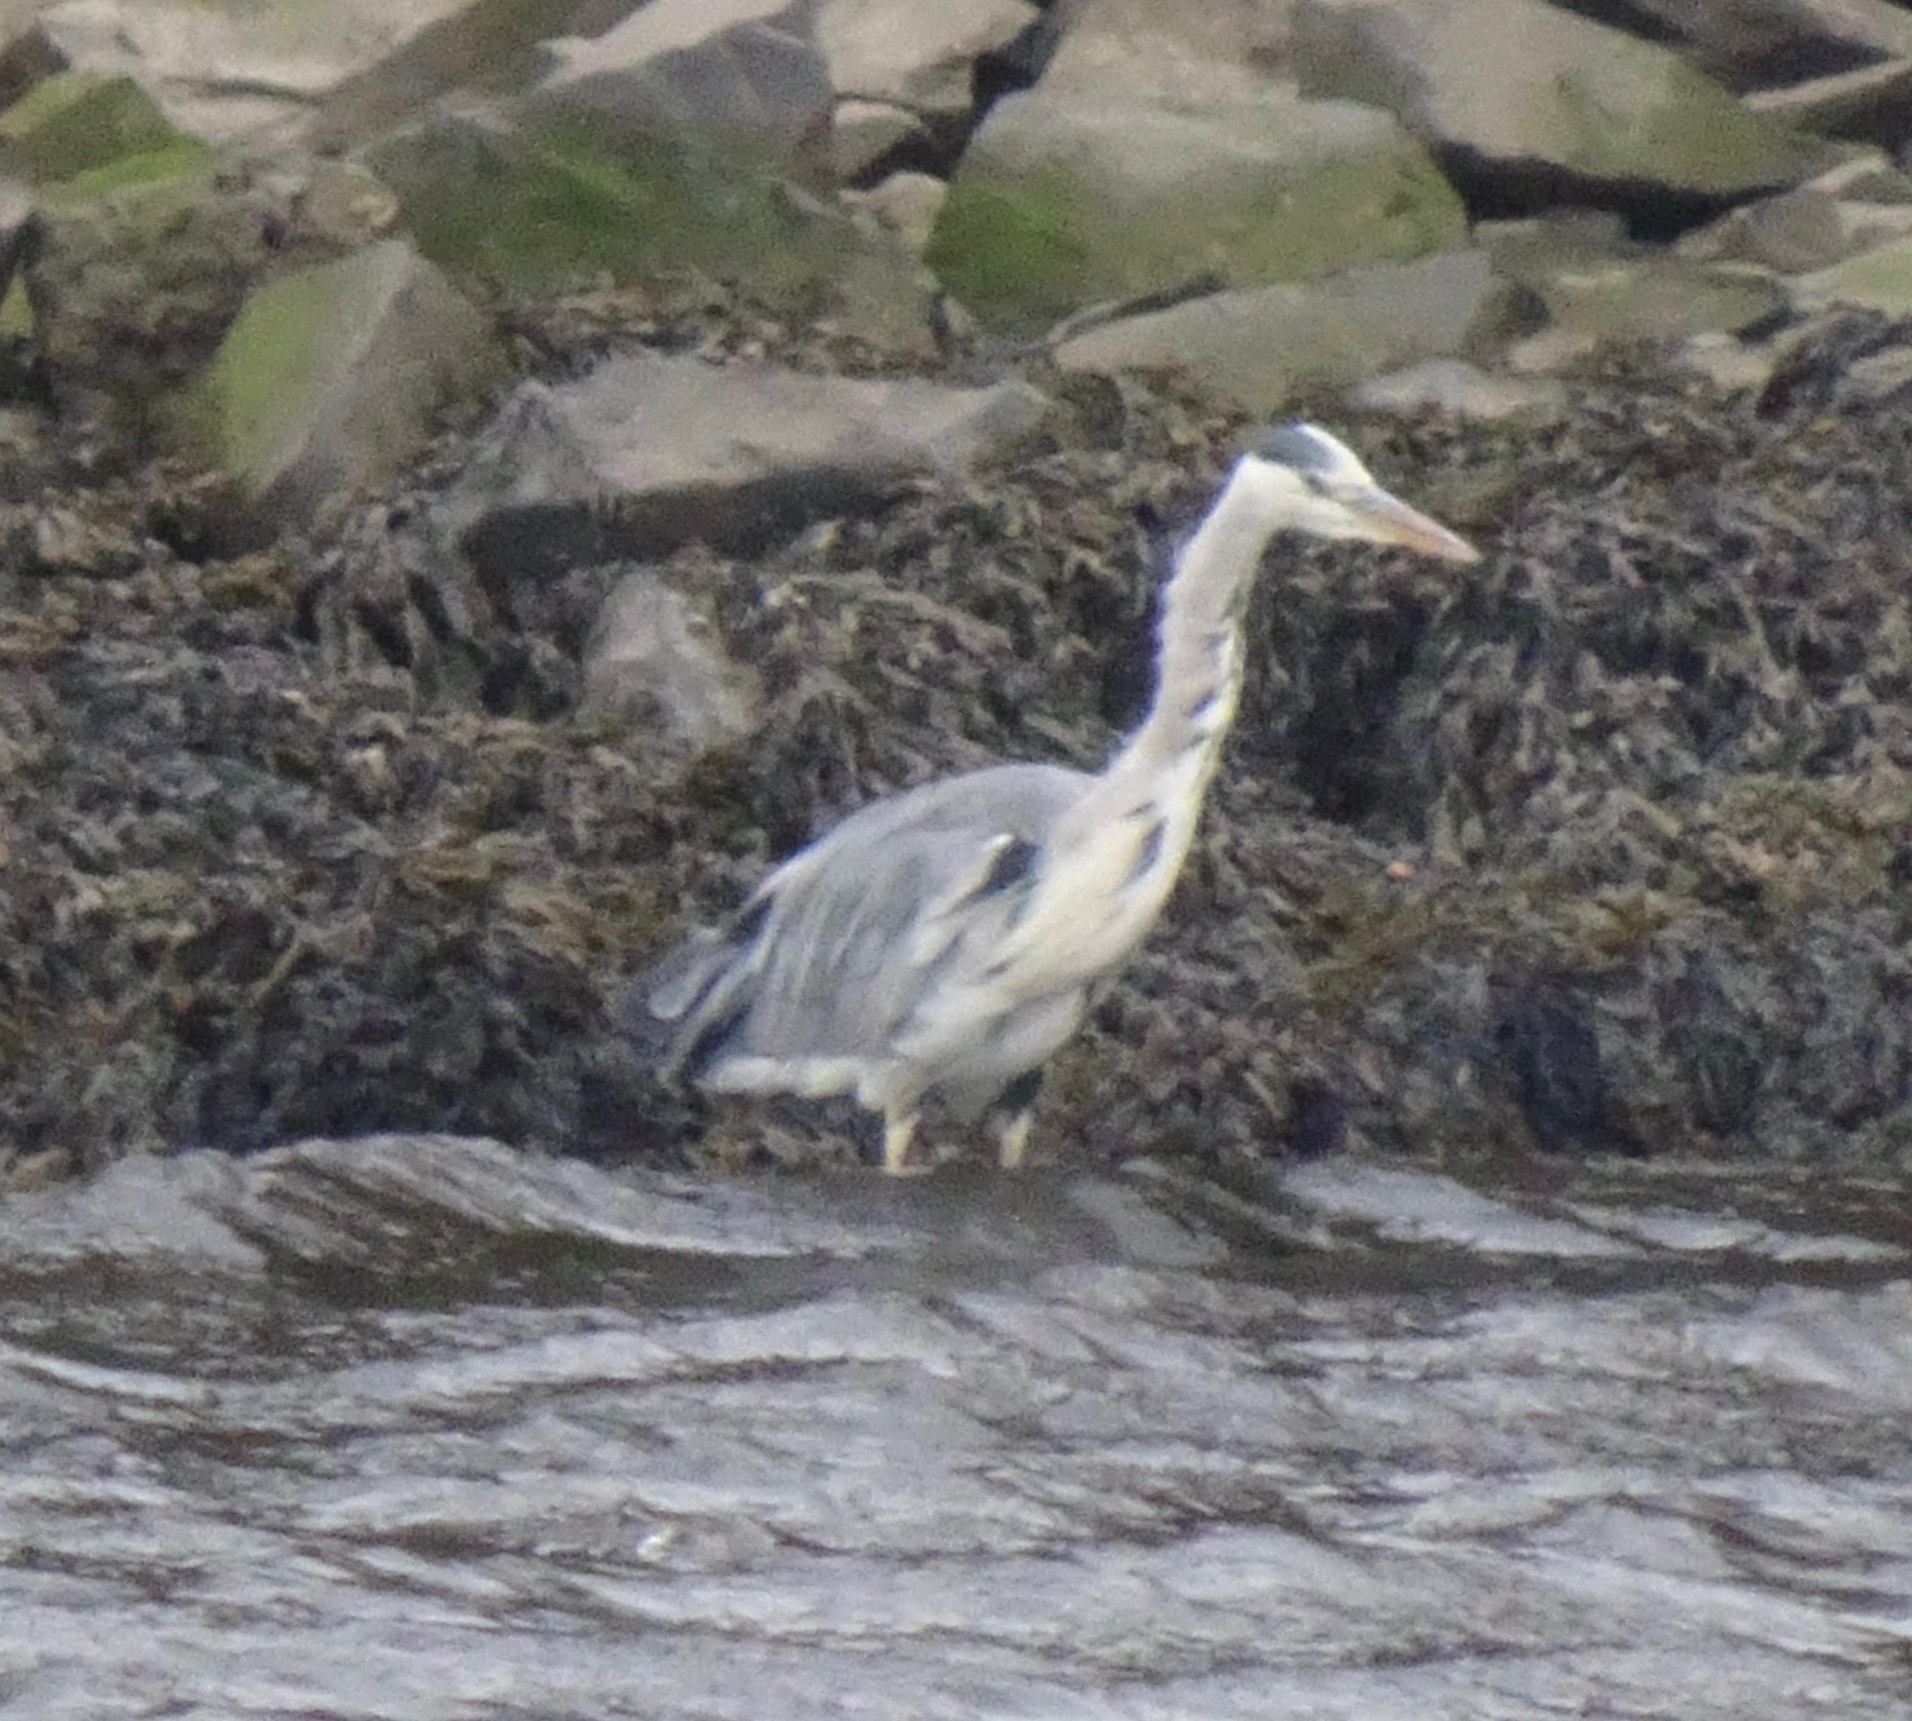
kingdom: Animalia
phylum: Chordata
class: Aves
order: Pelecaniformes
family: Ardeidae
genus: Ardea
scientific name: Ardea cinerea
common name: Grey heron
